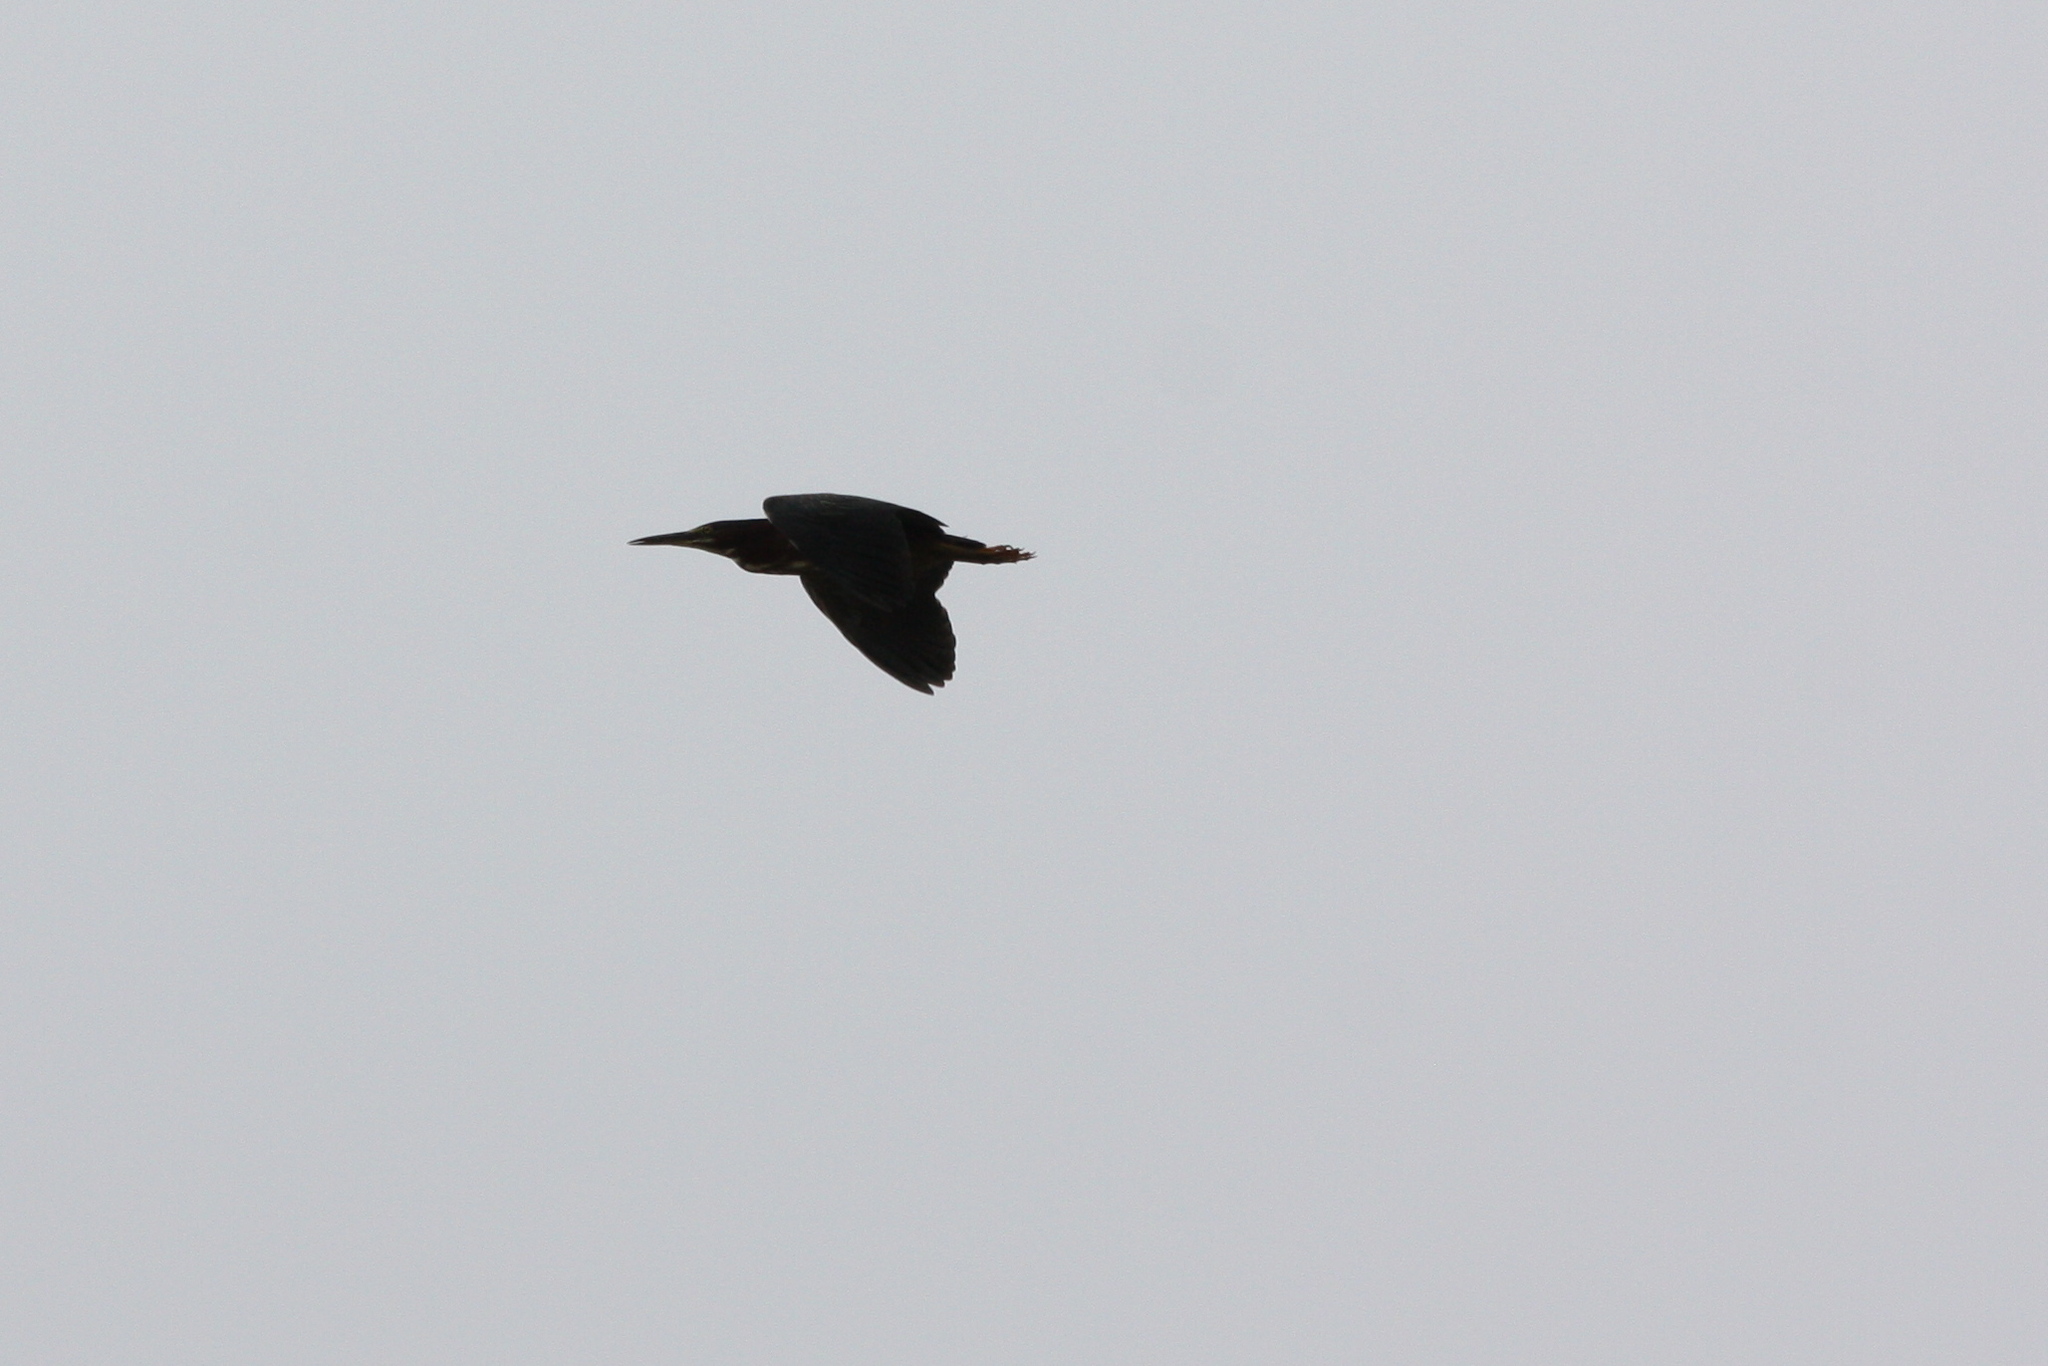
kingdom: Animalia
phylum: Chordata
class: Aves
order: Pelecaniformes
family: Ardeidae
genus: Butorides
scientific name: Butorides virescens
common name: Green heron
